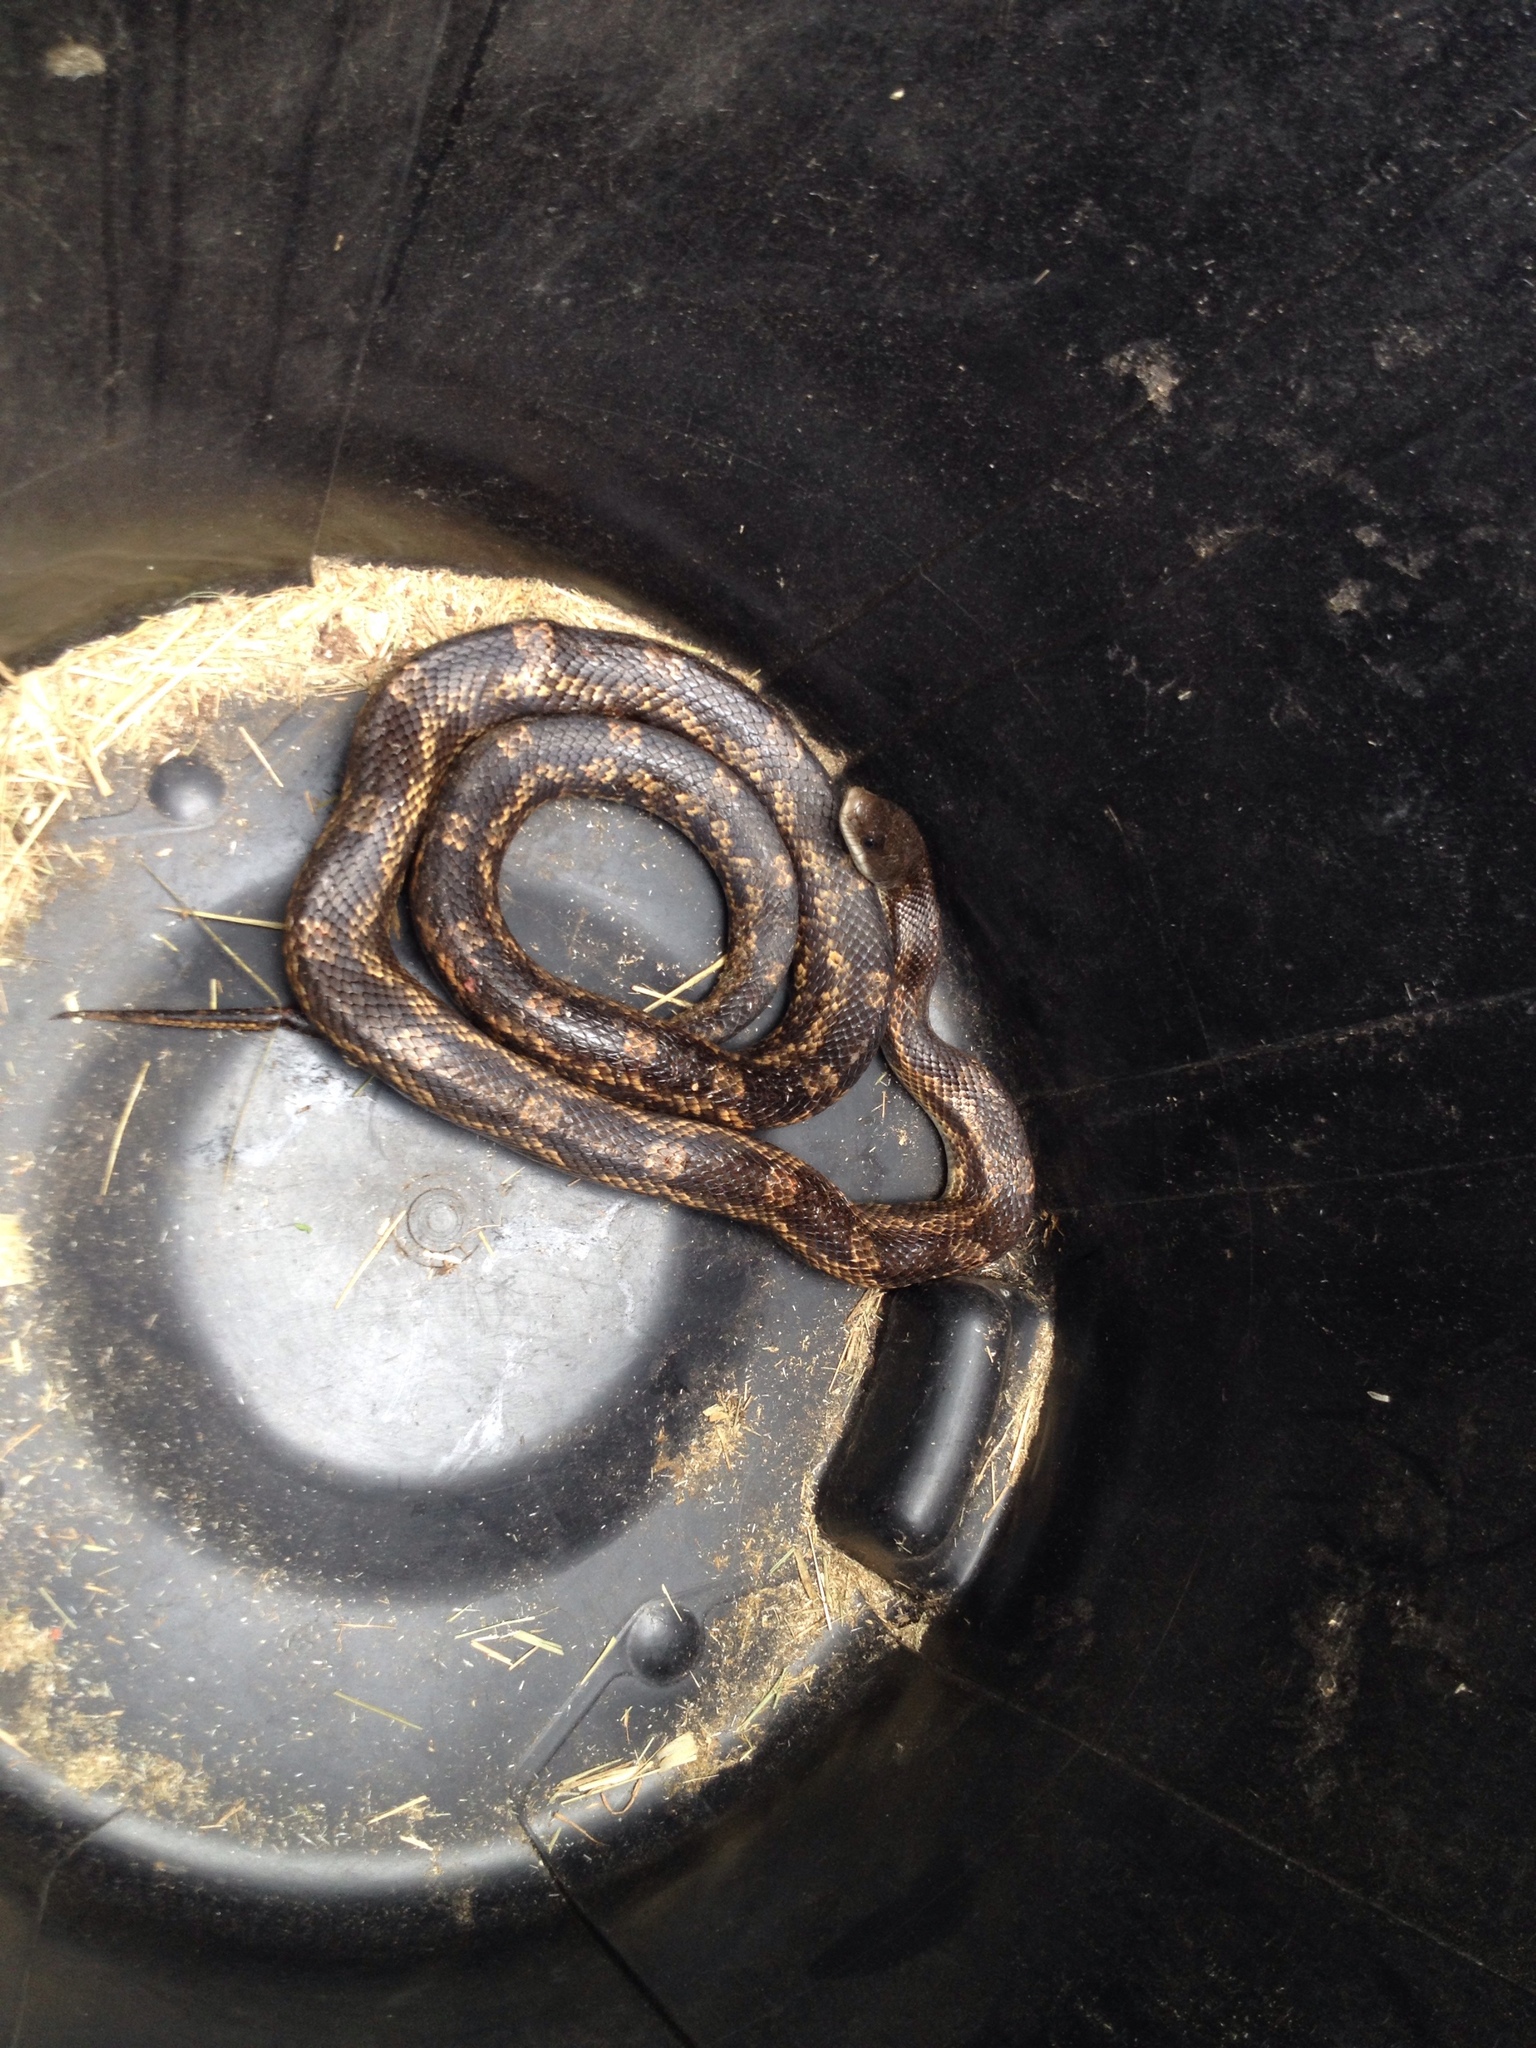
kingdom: Animalia
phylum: Chordata
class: Squamata
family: Colubridae
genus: Pantherophis
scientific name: Pantherophis obsoletus
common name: Black rat snake
